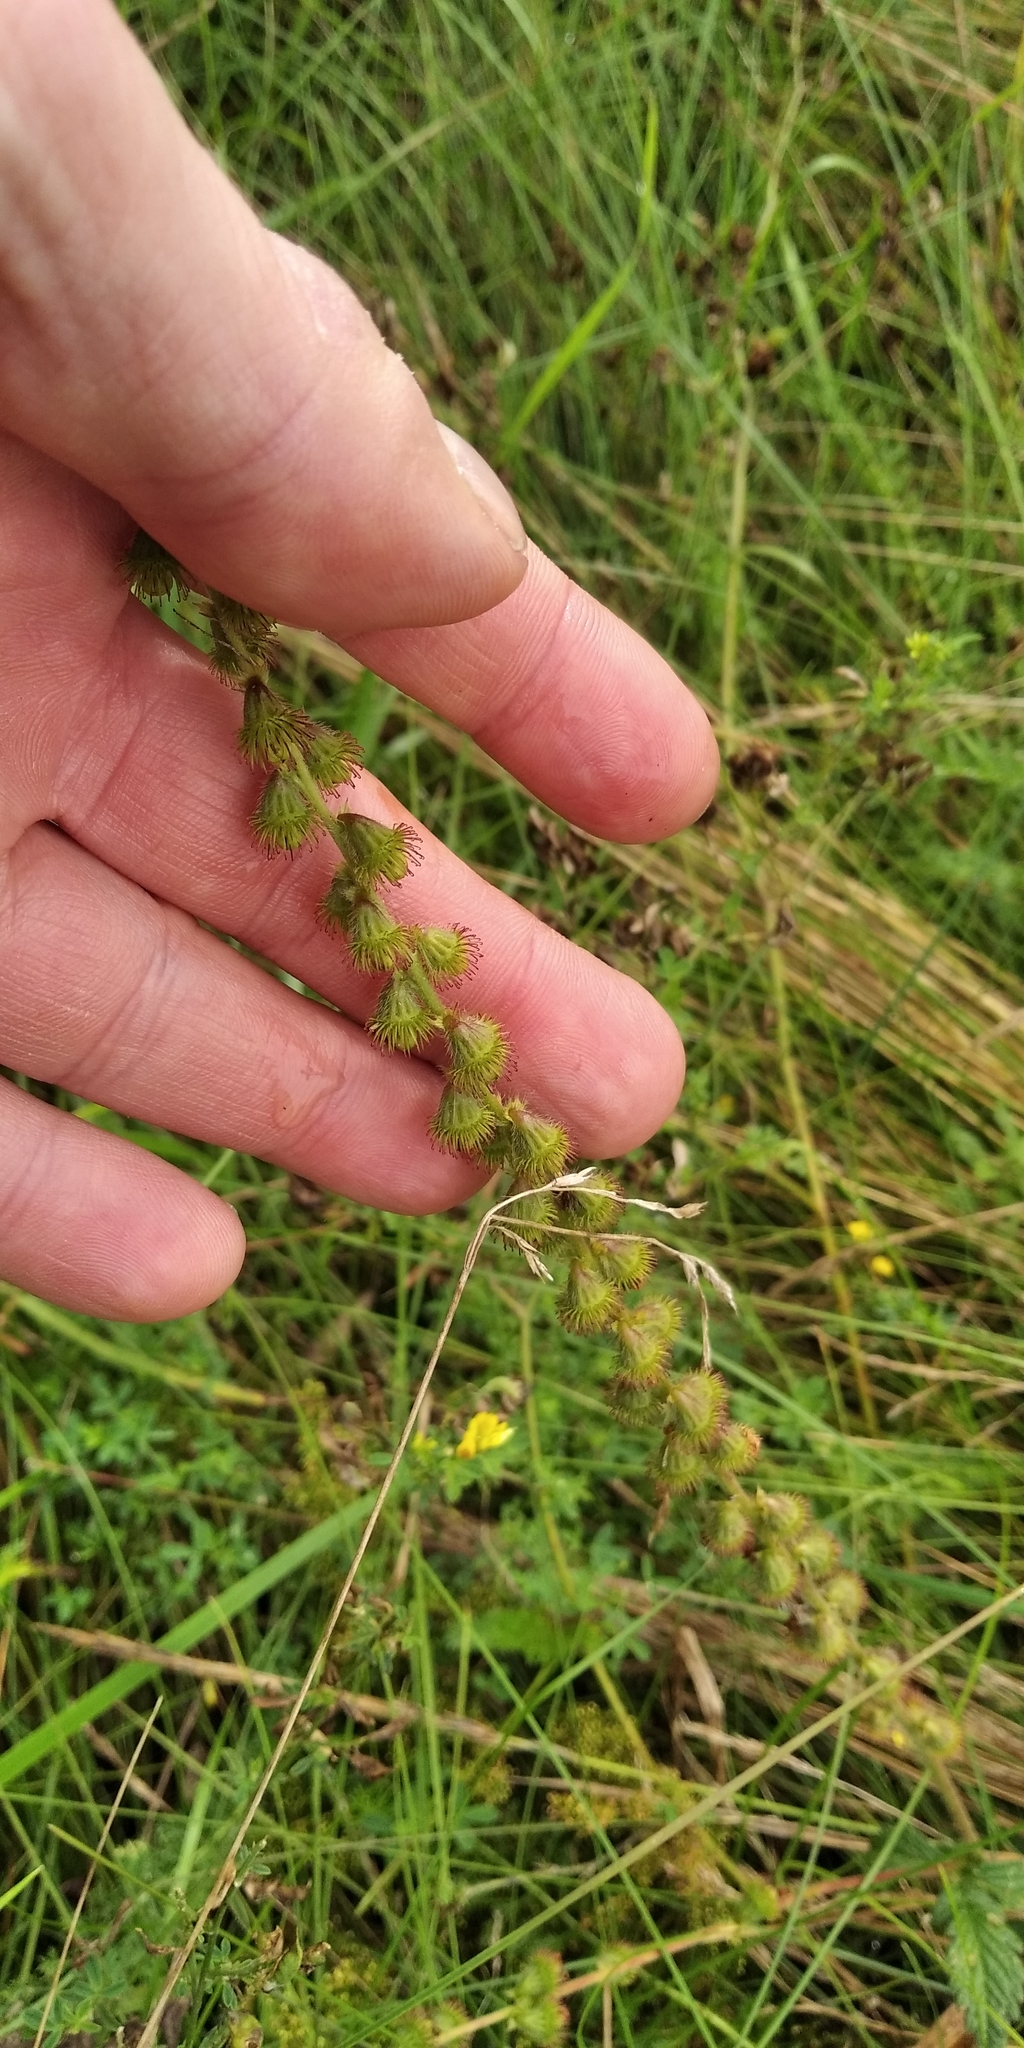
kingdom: Plantae
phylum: Tracheophyta
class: Magnoliopsida
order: Rosales
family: Rosaceae
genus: Agrimonia
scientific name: Agrimonia eupatoria
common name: Agrimony
